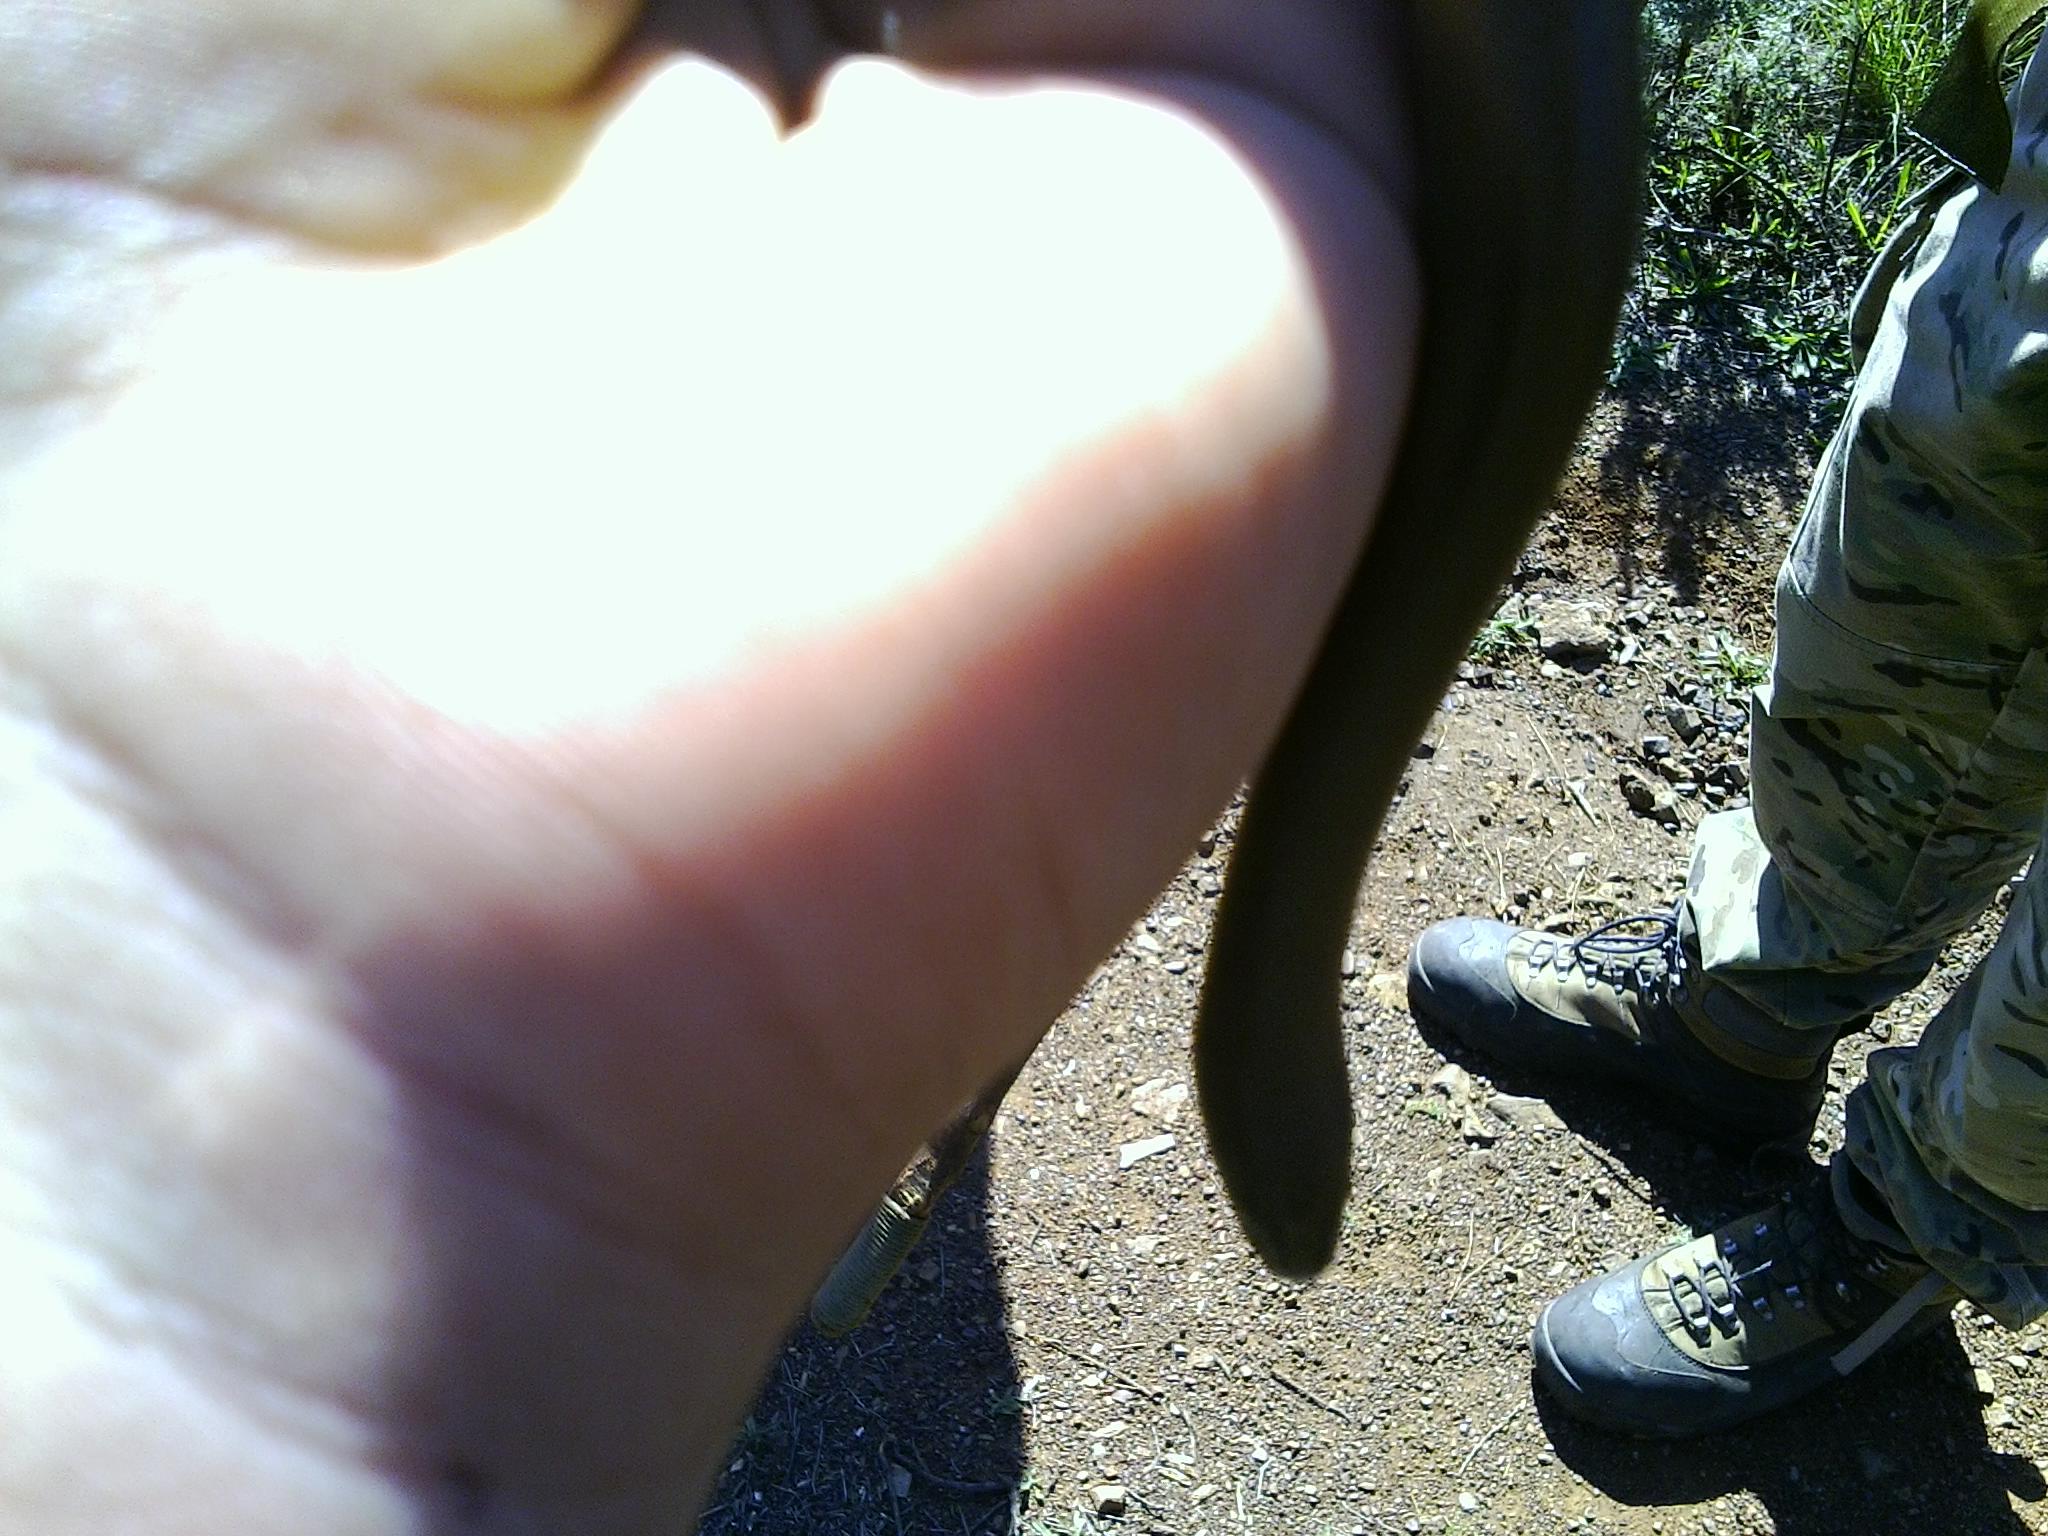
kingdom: Animalia
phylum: Chordata
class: Squamata
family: Boidae
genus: Charina
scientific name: Charina bottae
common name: Northern rubber boa
